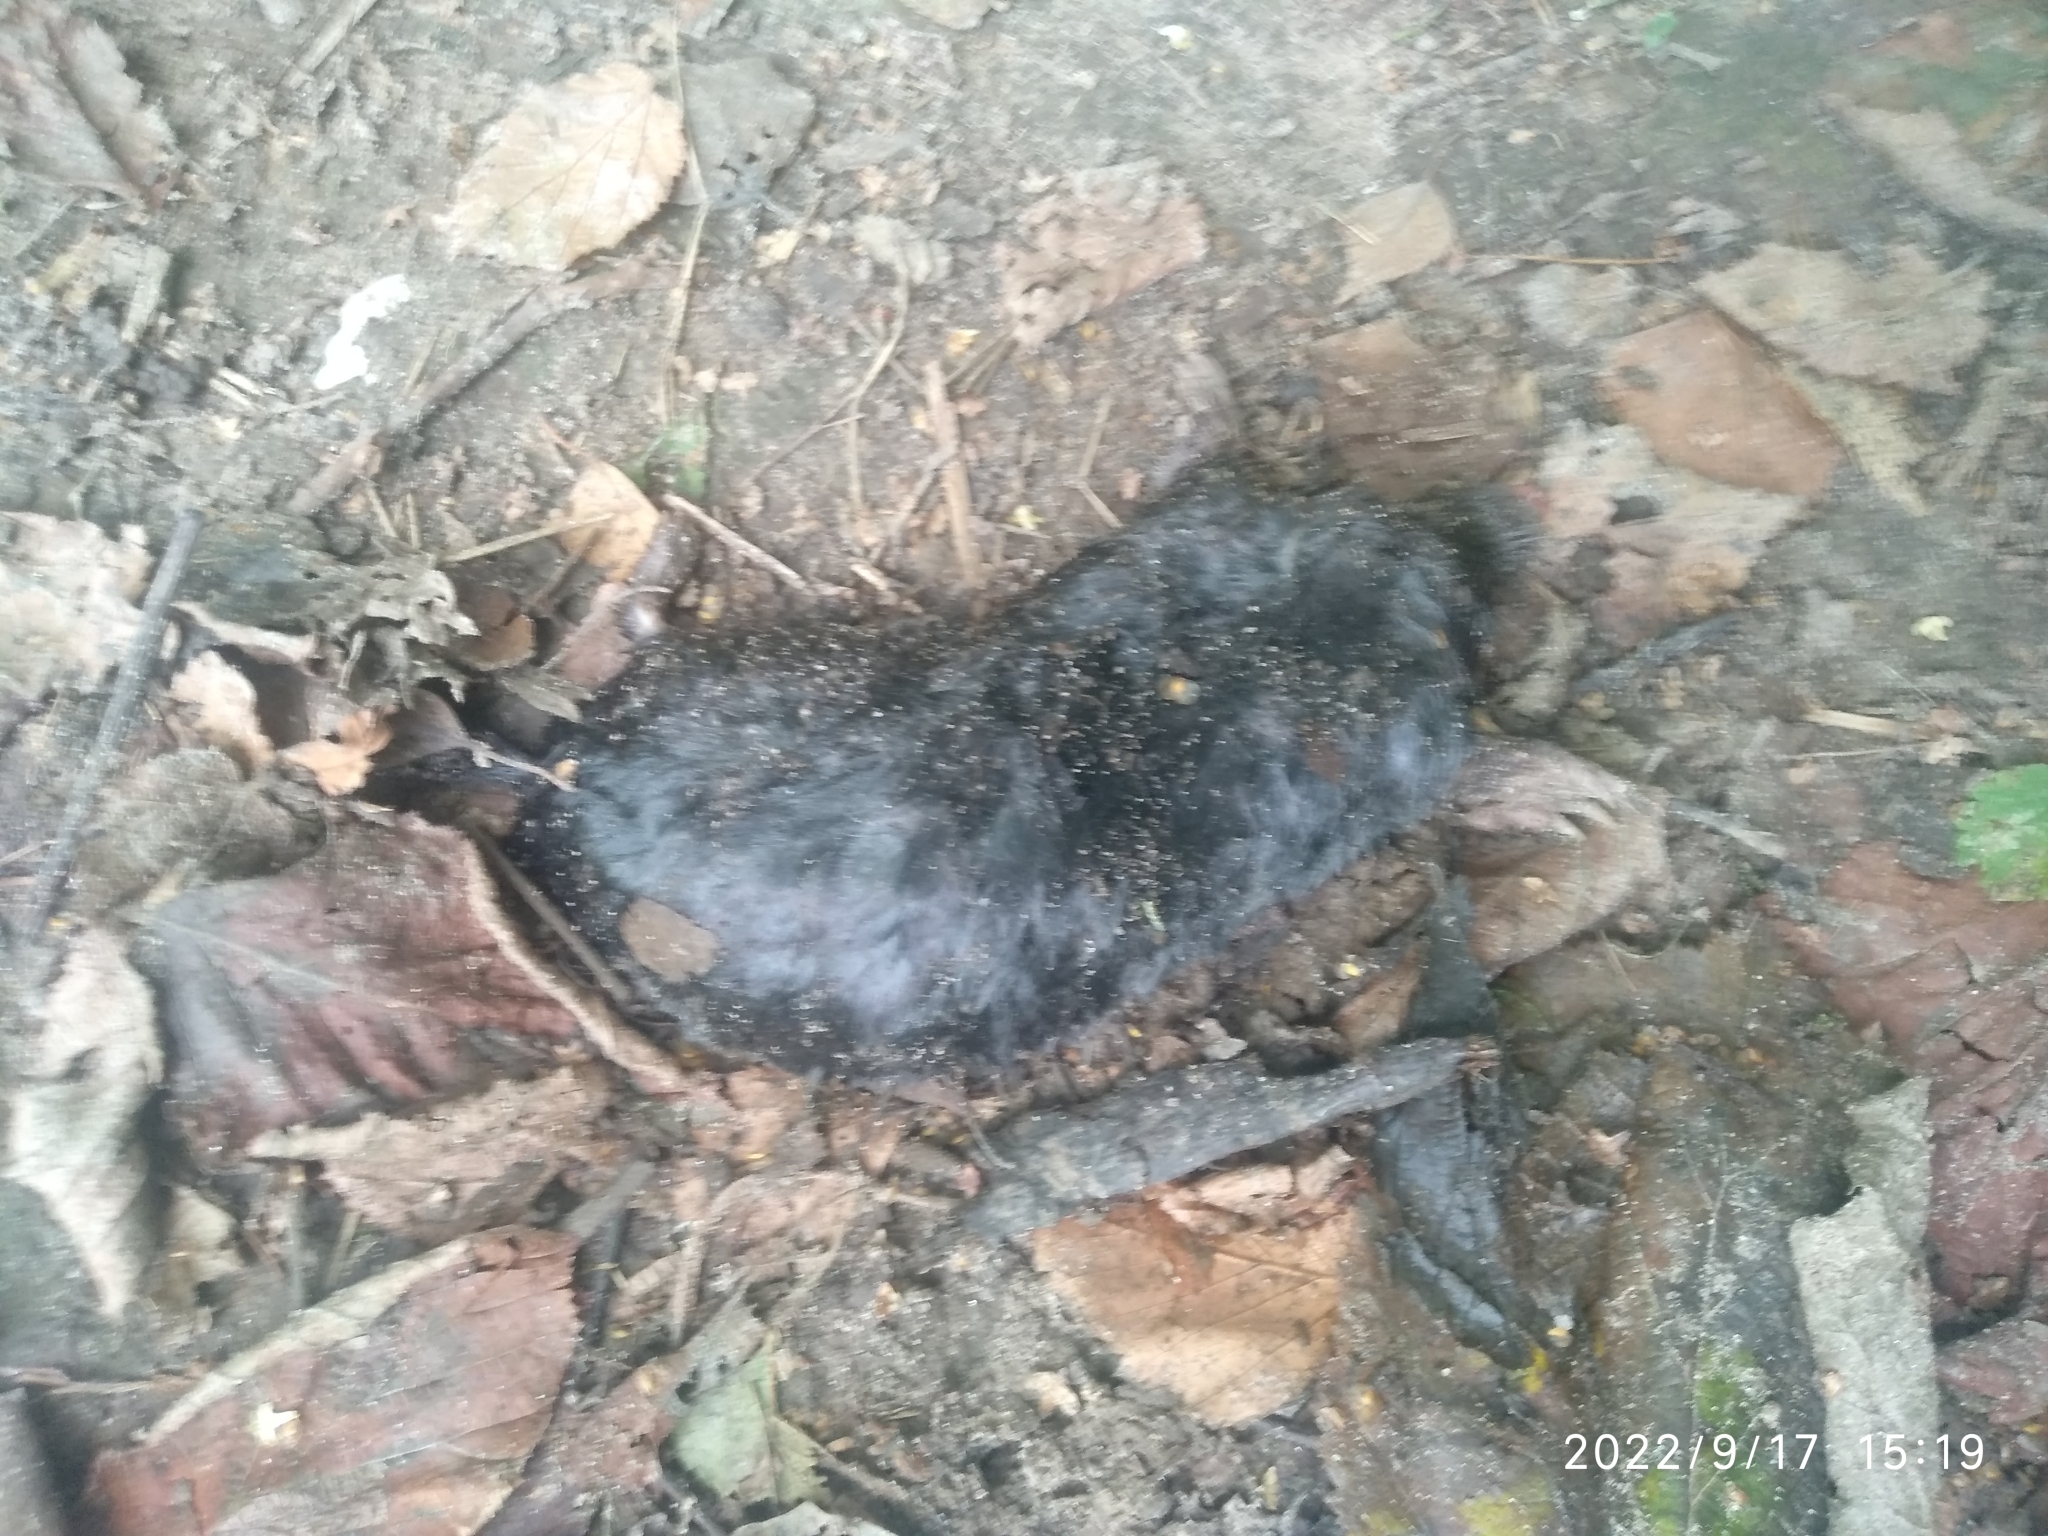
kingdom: Animalia
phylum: Chordata
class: Mammalia
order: Soricomorpha
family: Talpidae
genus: Talpa
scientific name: Talpa europaea
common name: European mole
